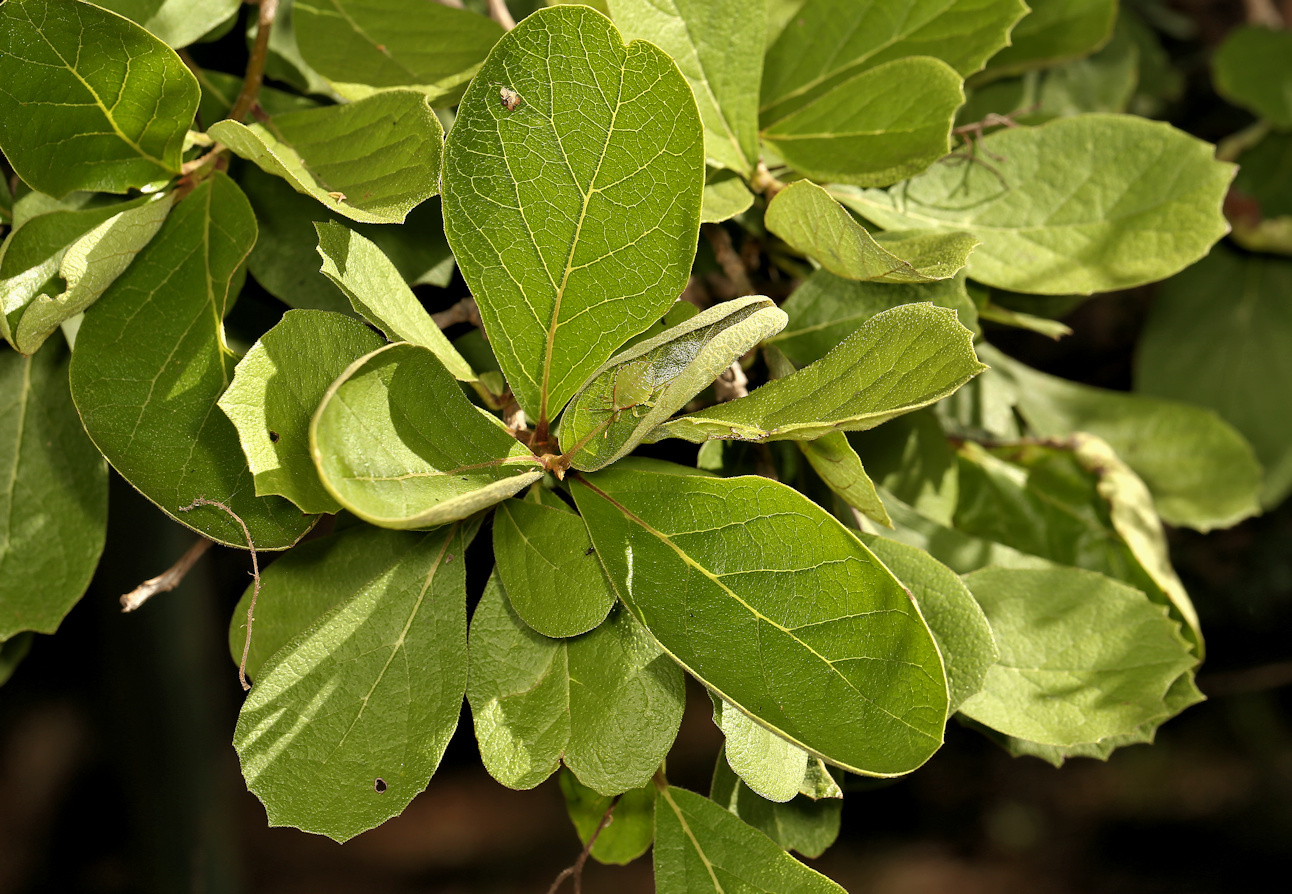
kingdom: Plantae
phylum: Tracheophyta
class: Magnoliopsida
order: Boraginales
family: Ehretiaceae
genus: Ehretia
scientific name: Ehretia amoena
